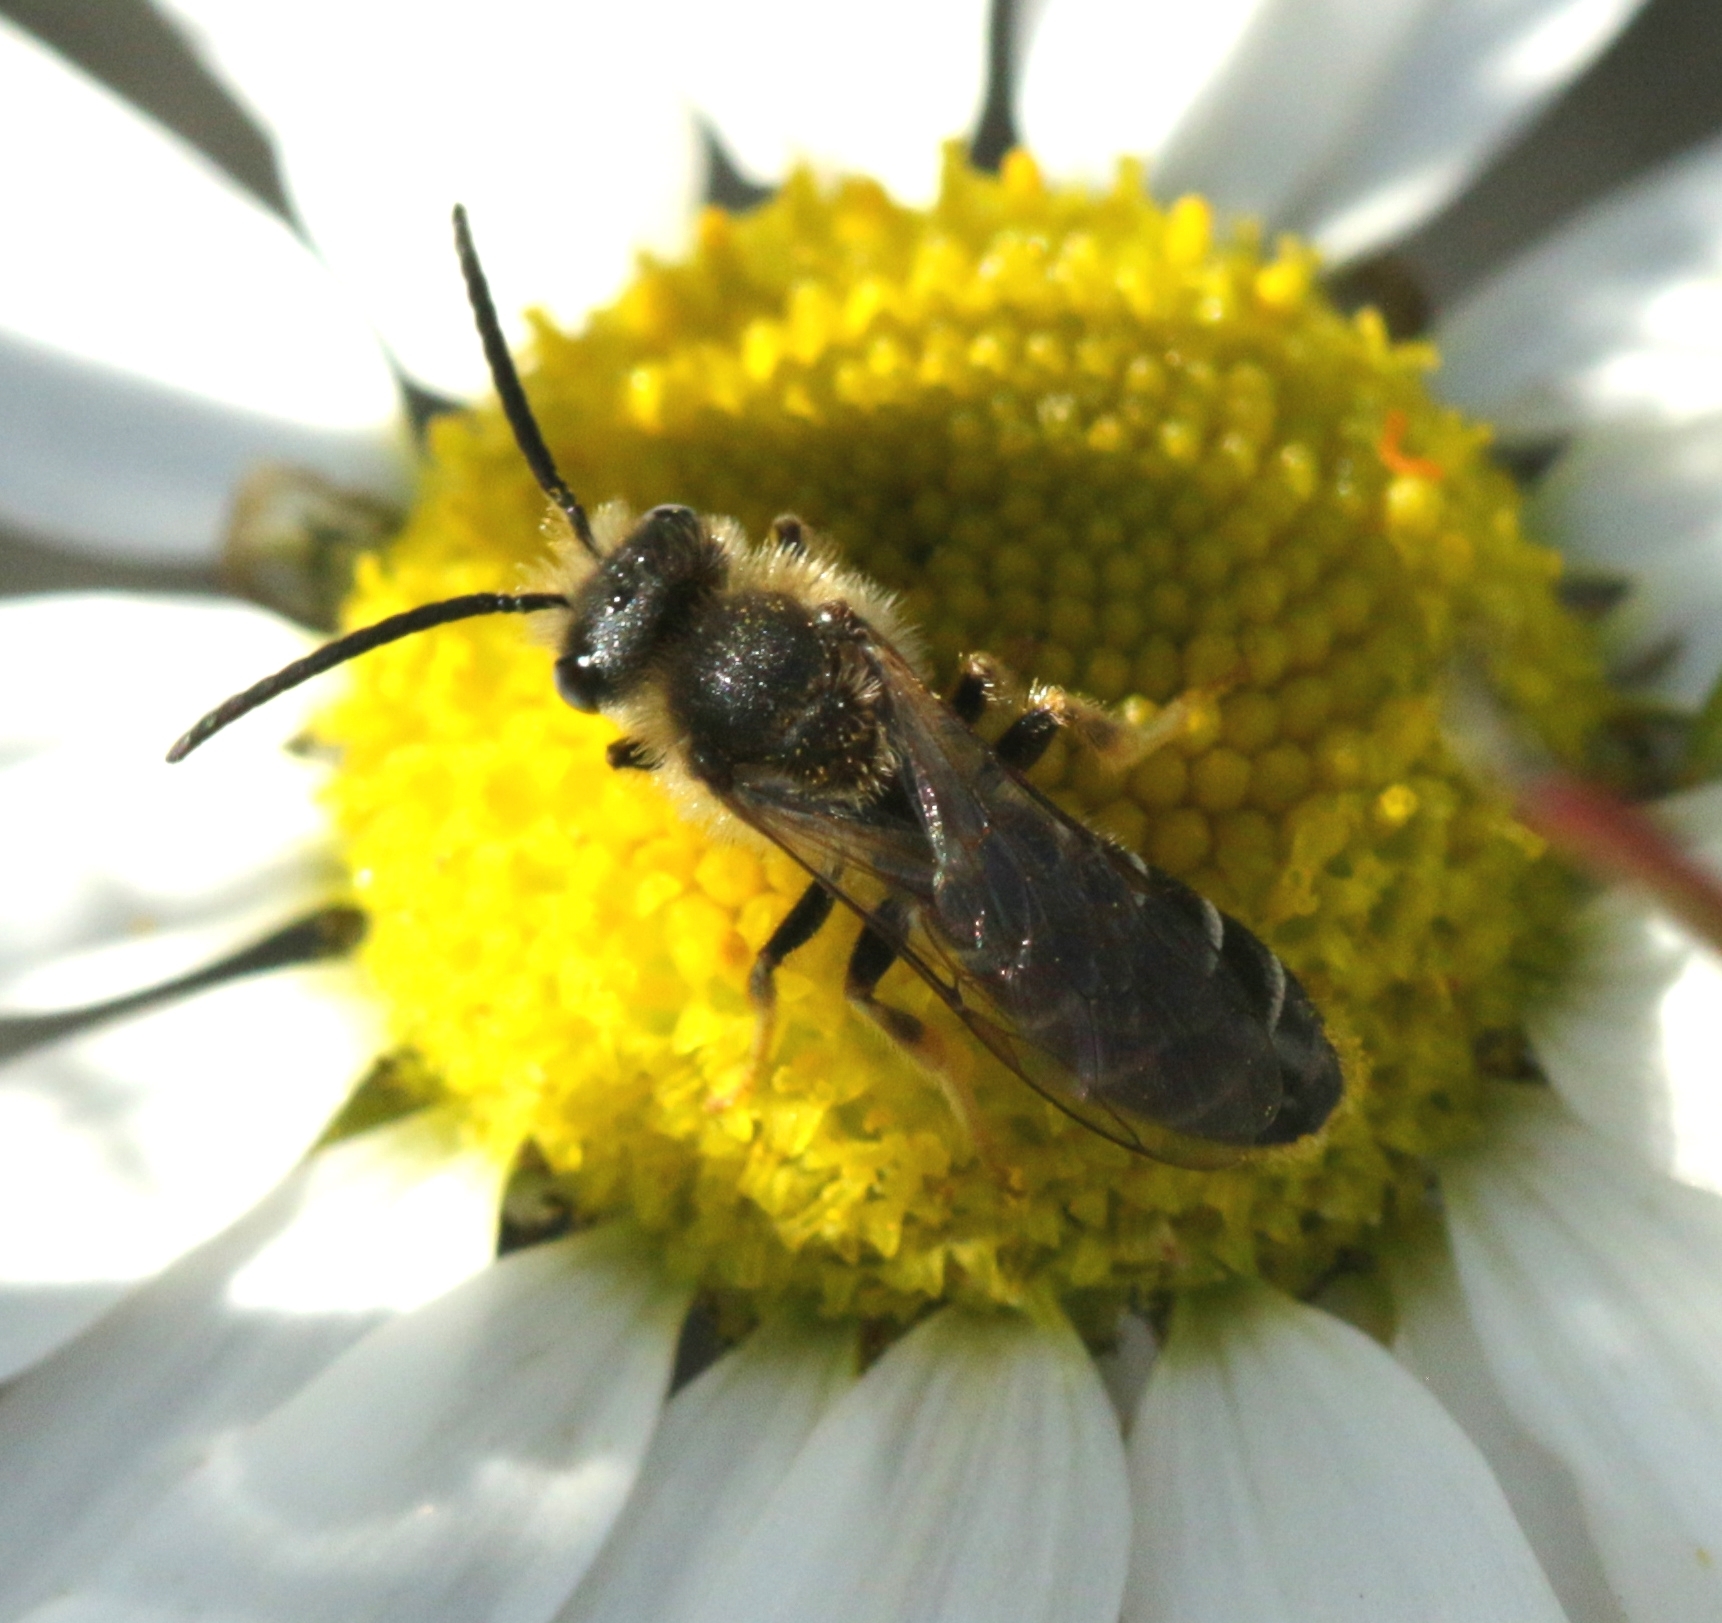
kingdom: Animalia
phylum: Arthropoda
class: Insecta
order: Hymenoptera
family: Halictidae
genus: Halictus
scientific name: Halictus rubicundus
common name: Orange-legged furrow bee
